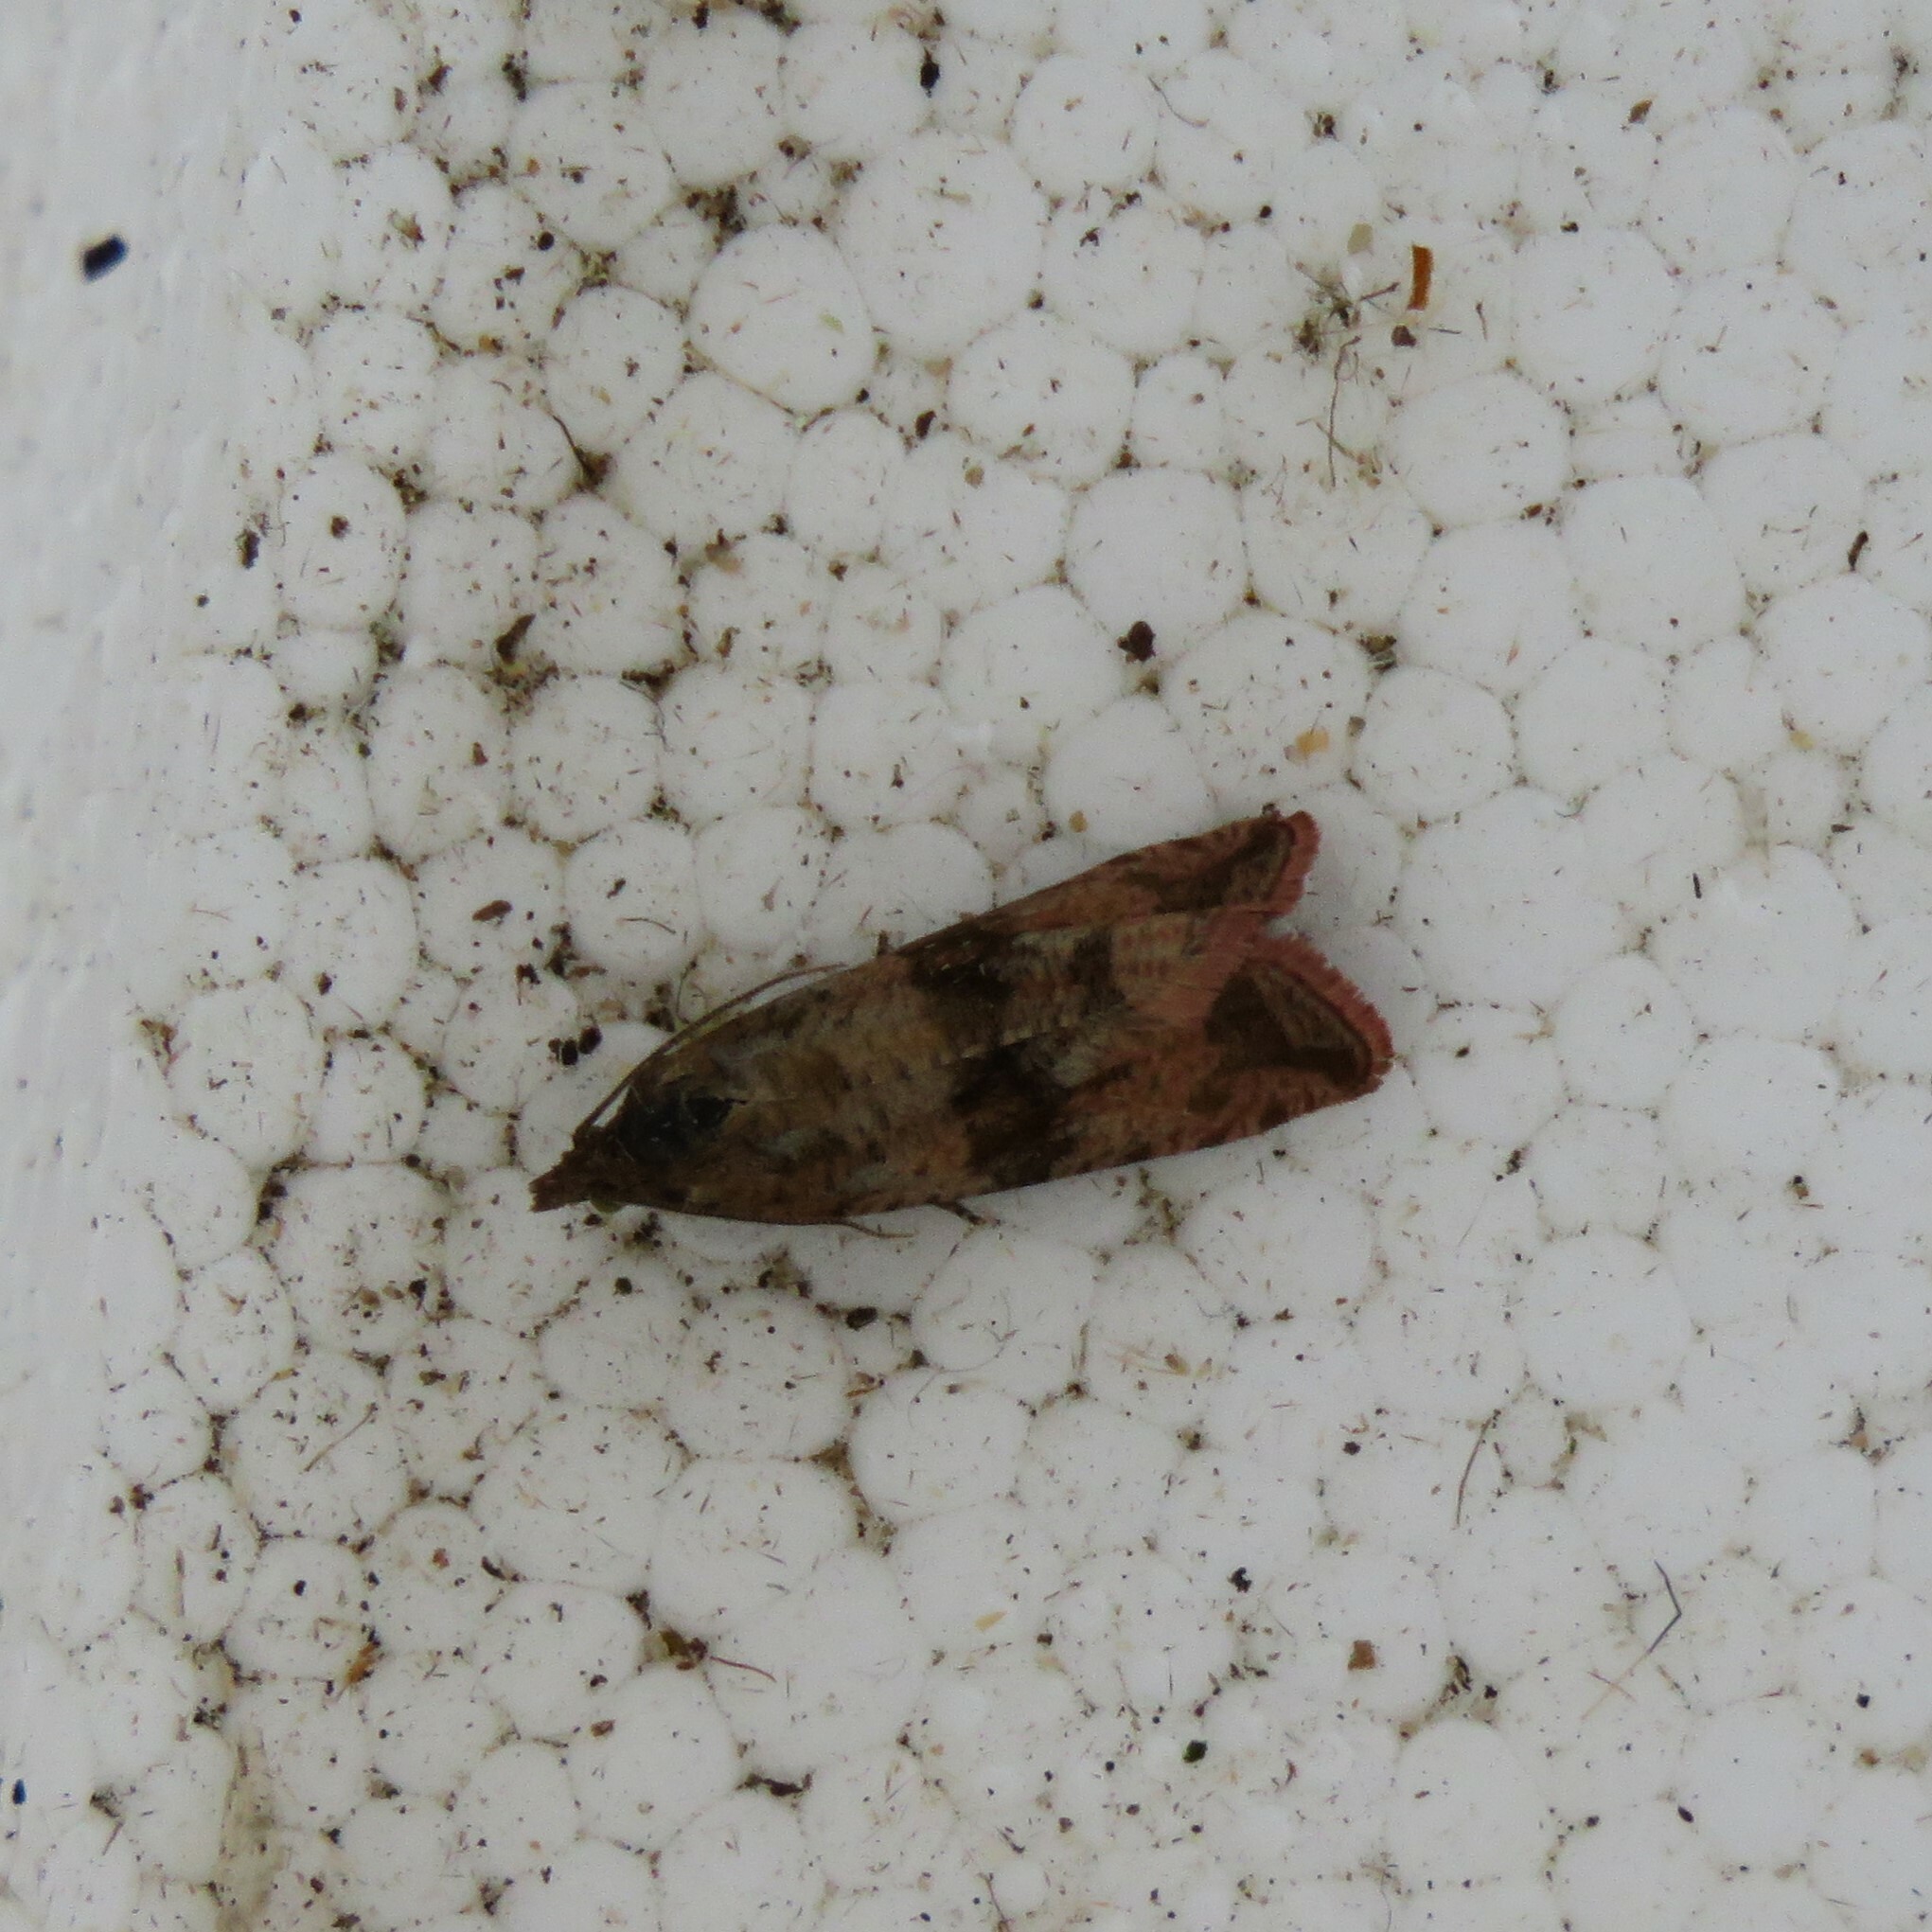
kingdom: Animalia
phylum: Arthropoda
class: Insecta
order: Lepidoptera
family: Tortricidae
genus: Celypha
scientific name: Celypha striana
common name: Barred marble
